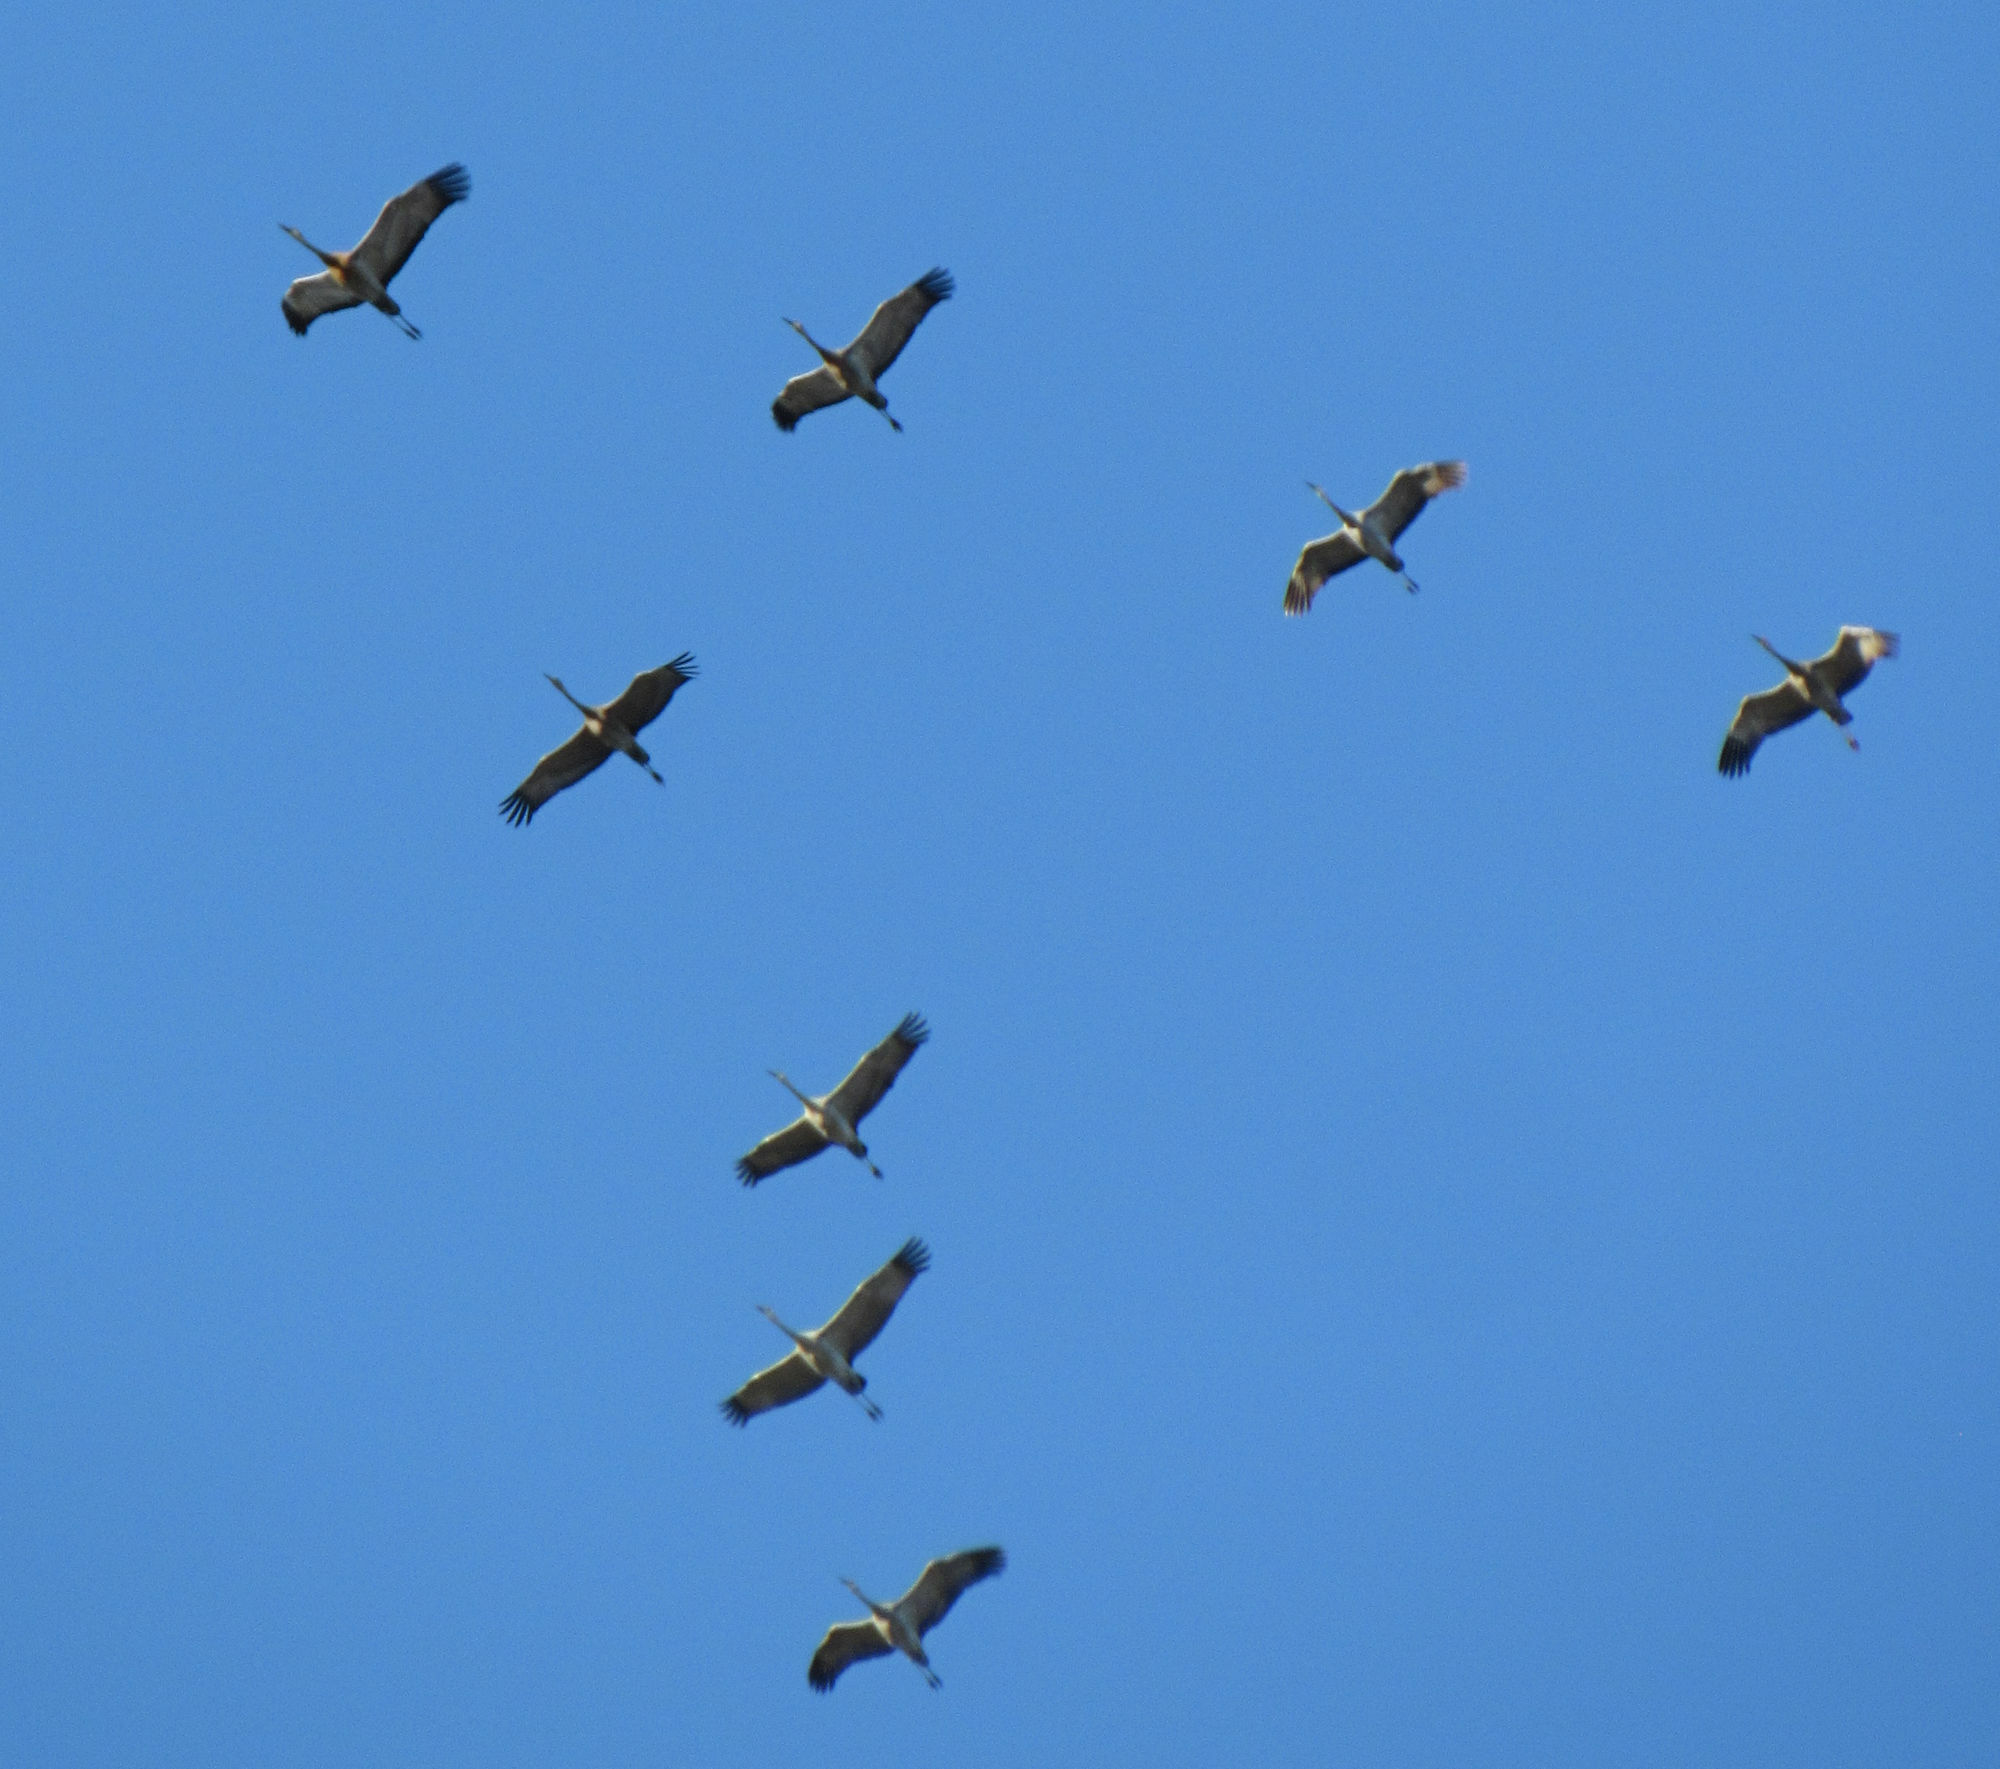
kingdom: Animalia
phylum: Chordata
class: Aves
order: Gruiformes
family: Gruidae
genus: Grus
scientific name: Grus canadensis
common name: Sandhill crane
